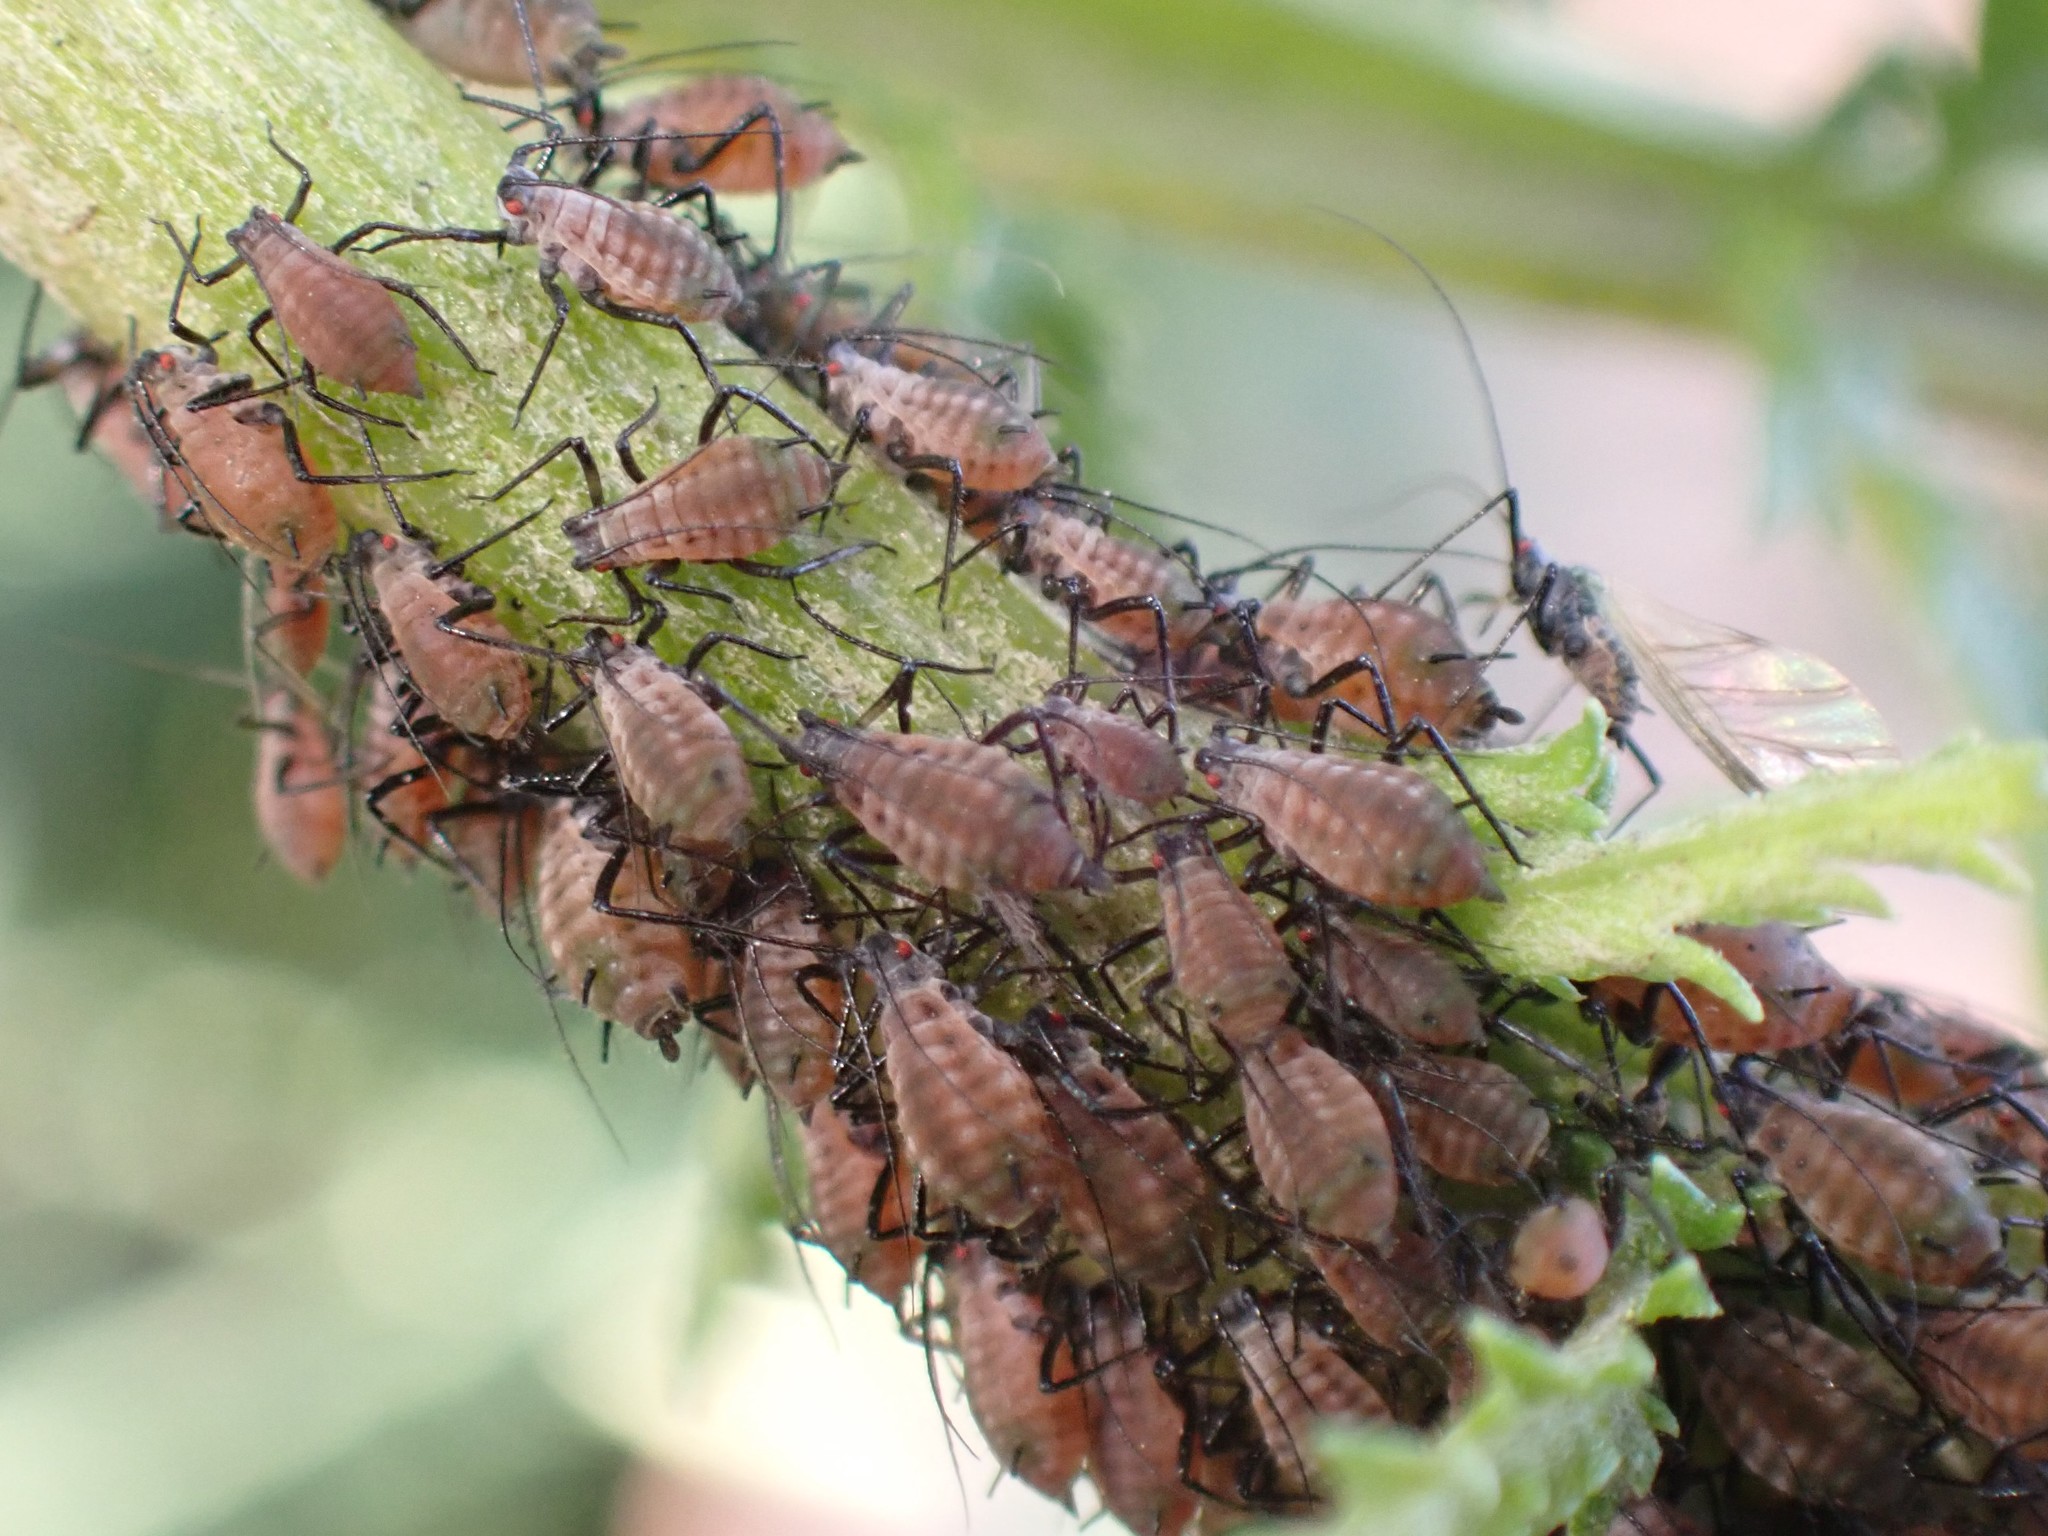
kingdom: Animalia
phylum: Arthropoda
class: Insecta
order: Hemiptera
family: Aphididae
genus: Macrosiphoniella
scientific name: Macrosiphoniella tanacetaria
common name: Aphid
